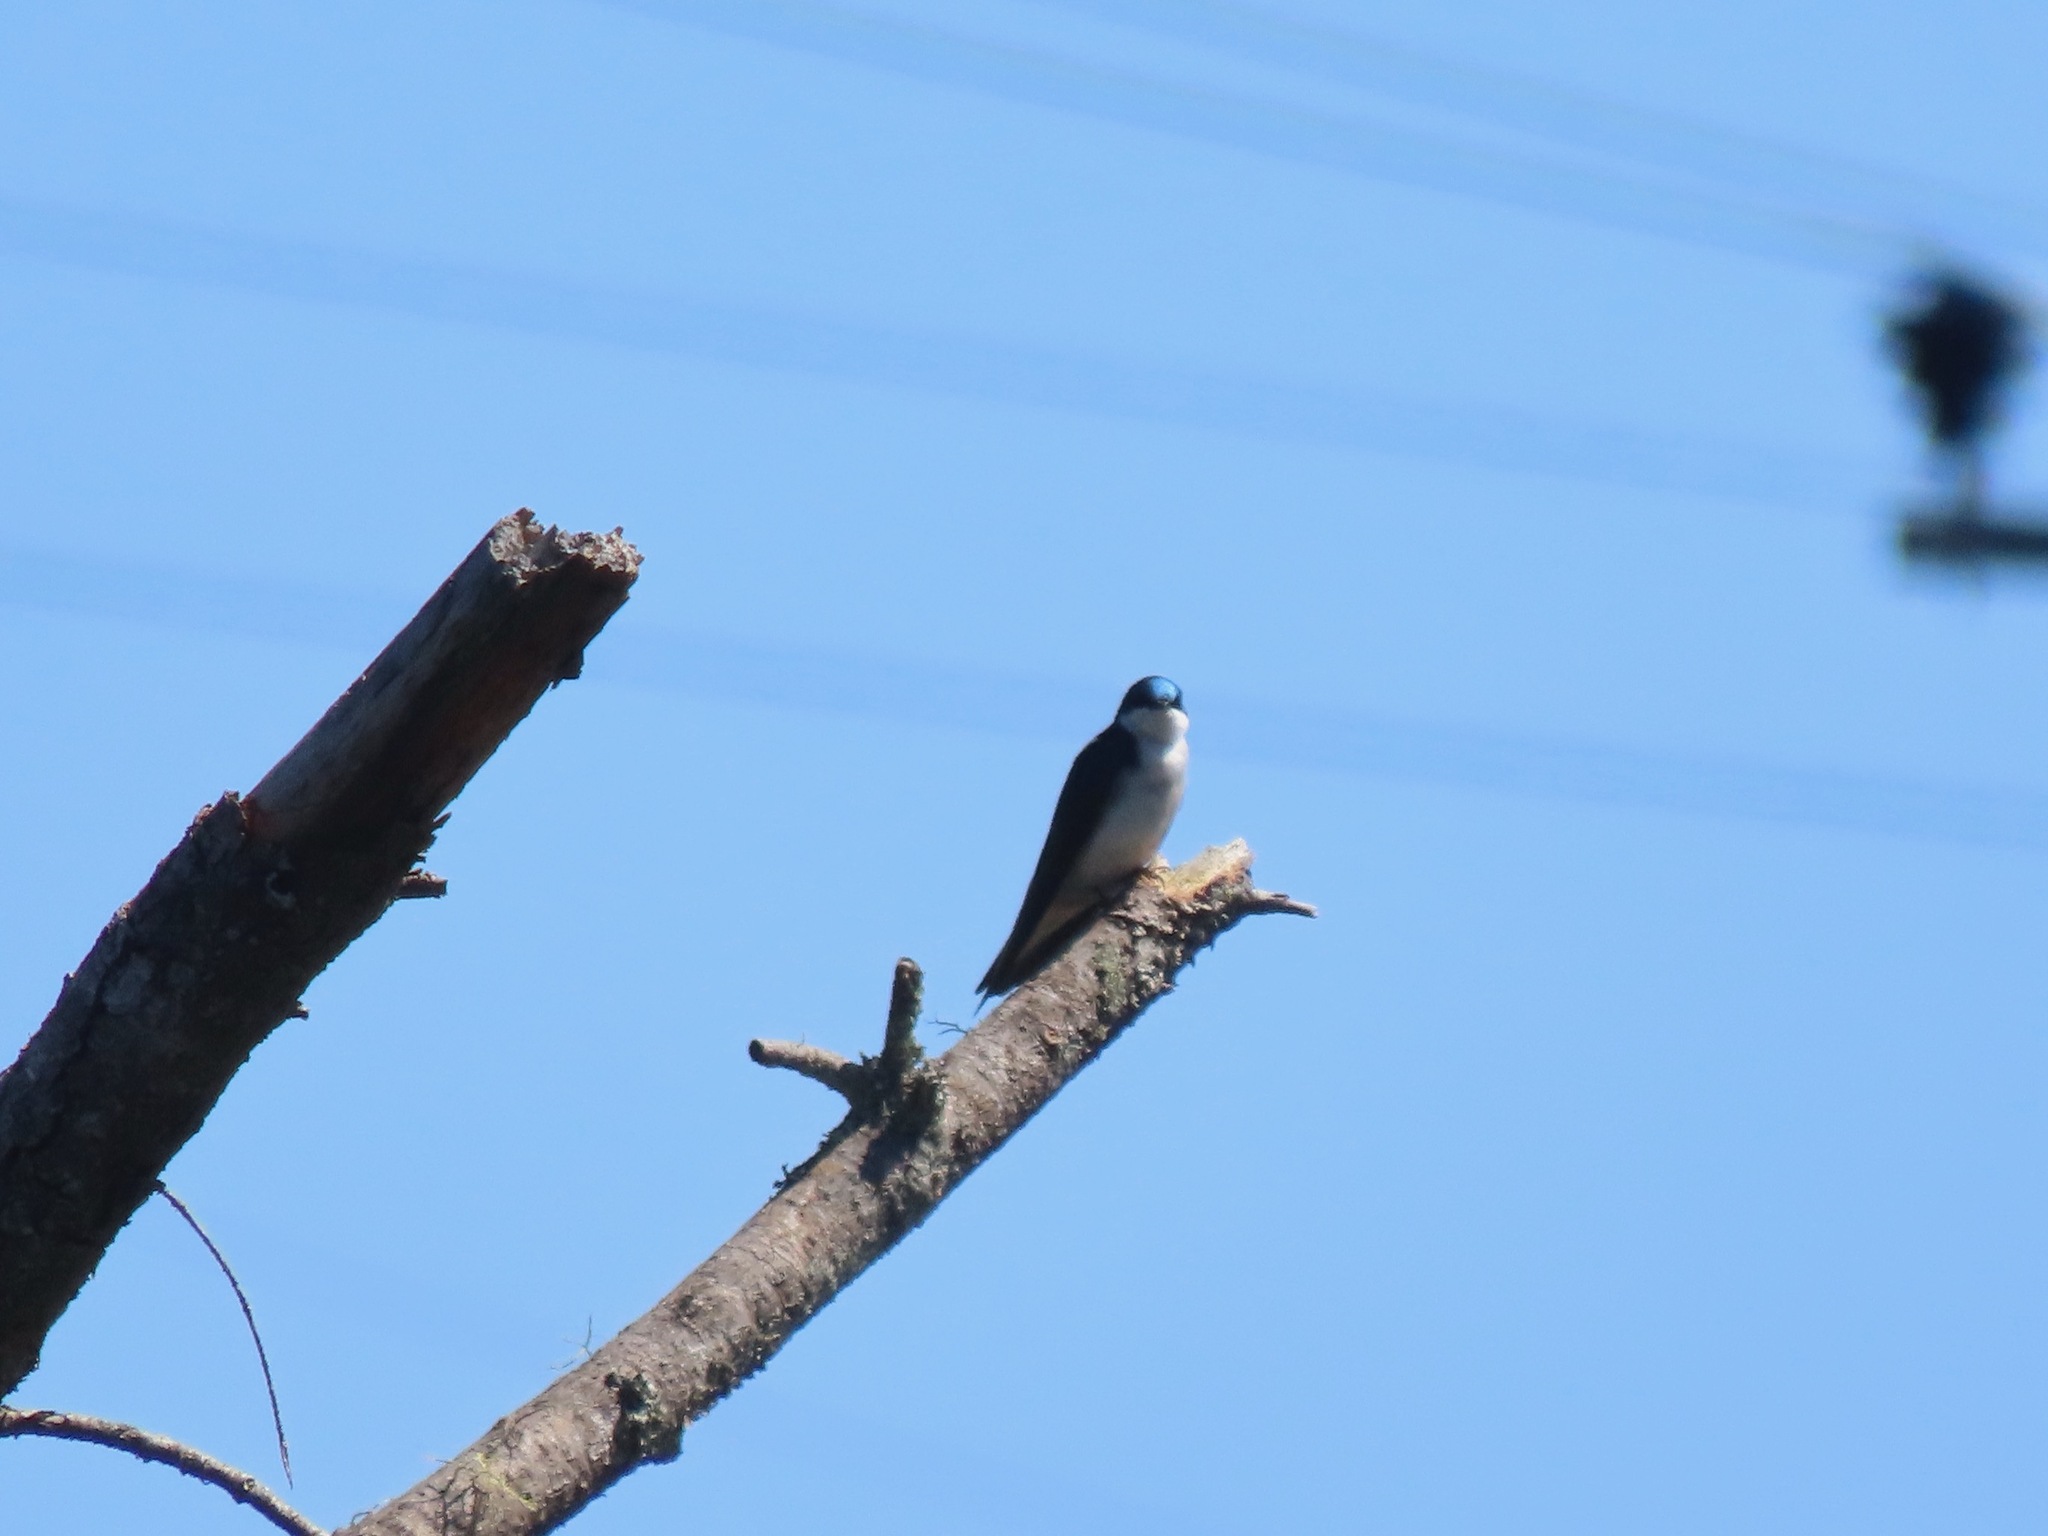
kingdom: Animalia
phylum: Chordata
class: Aves
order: Passeriformes
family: Hirundinidae
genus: Tachycineta
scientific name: Tachycineta bicolor
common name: Tree swallow
